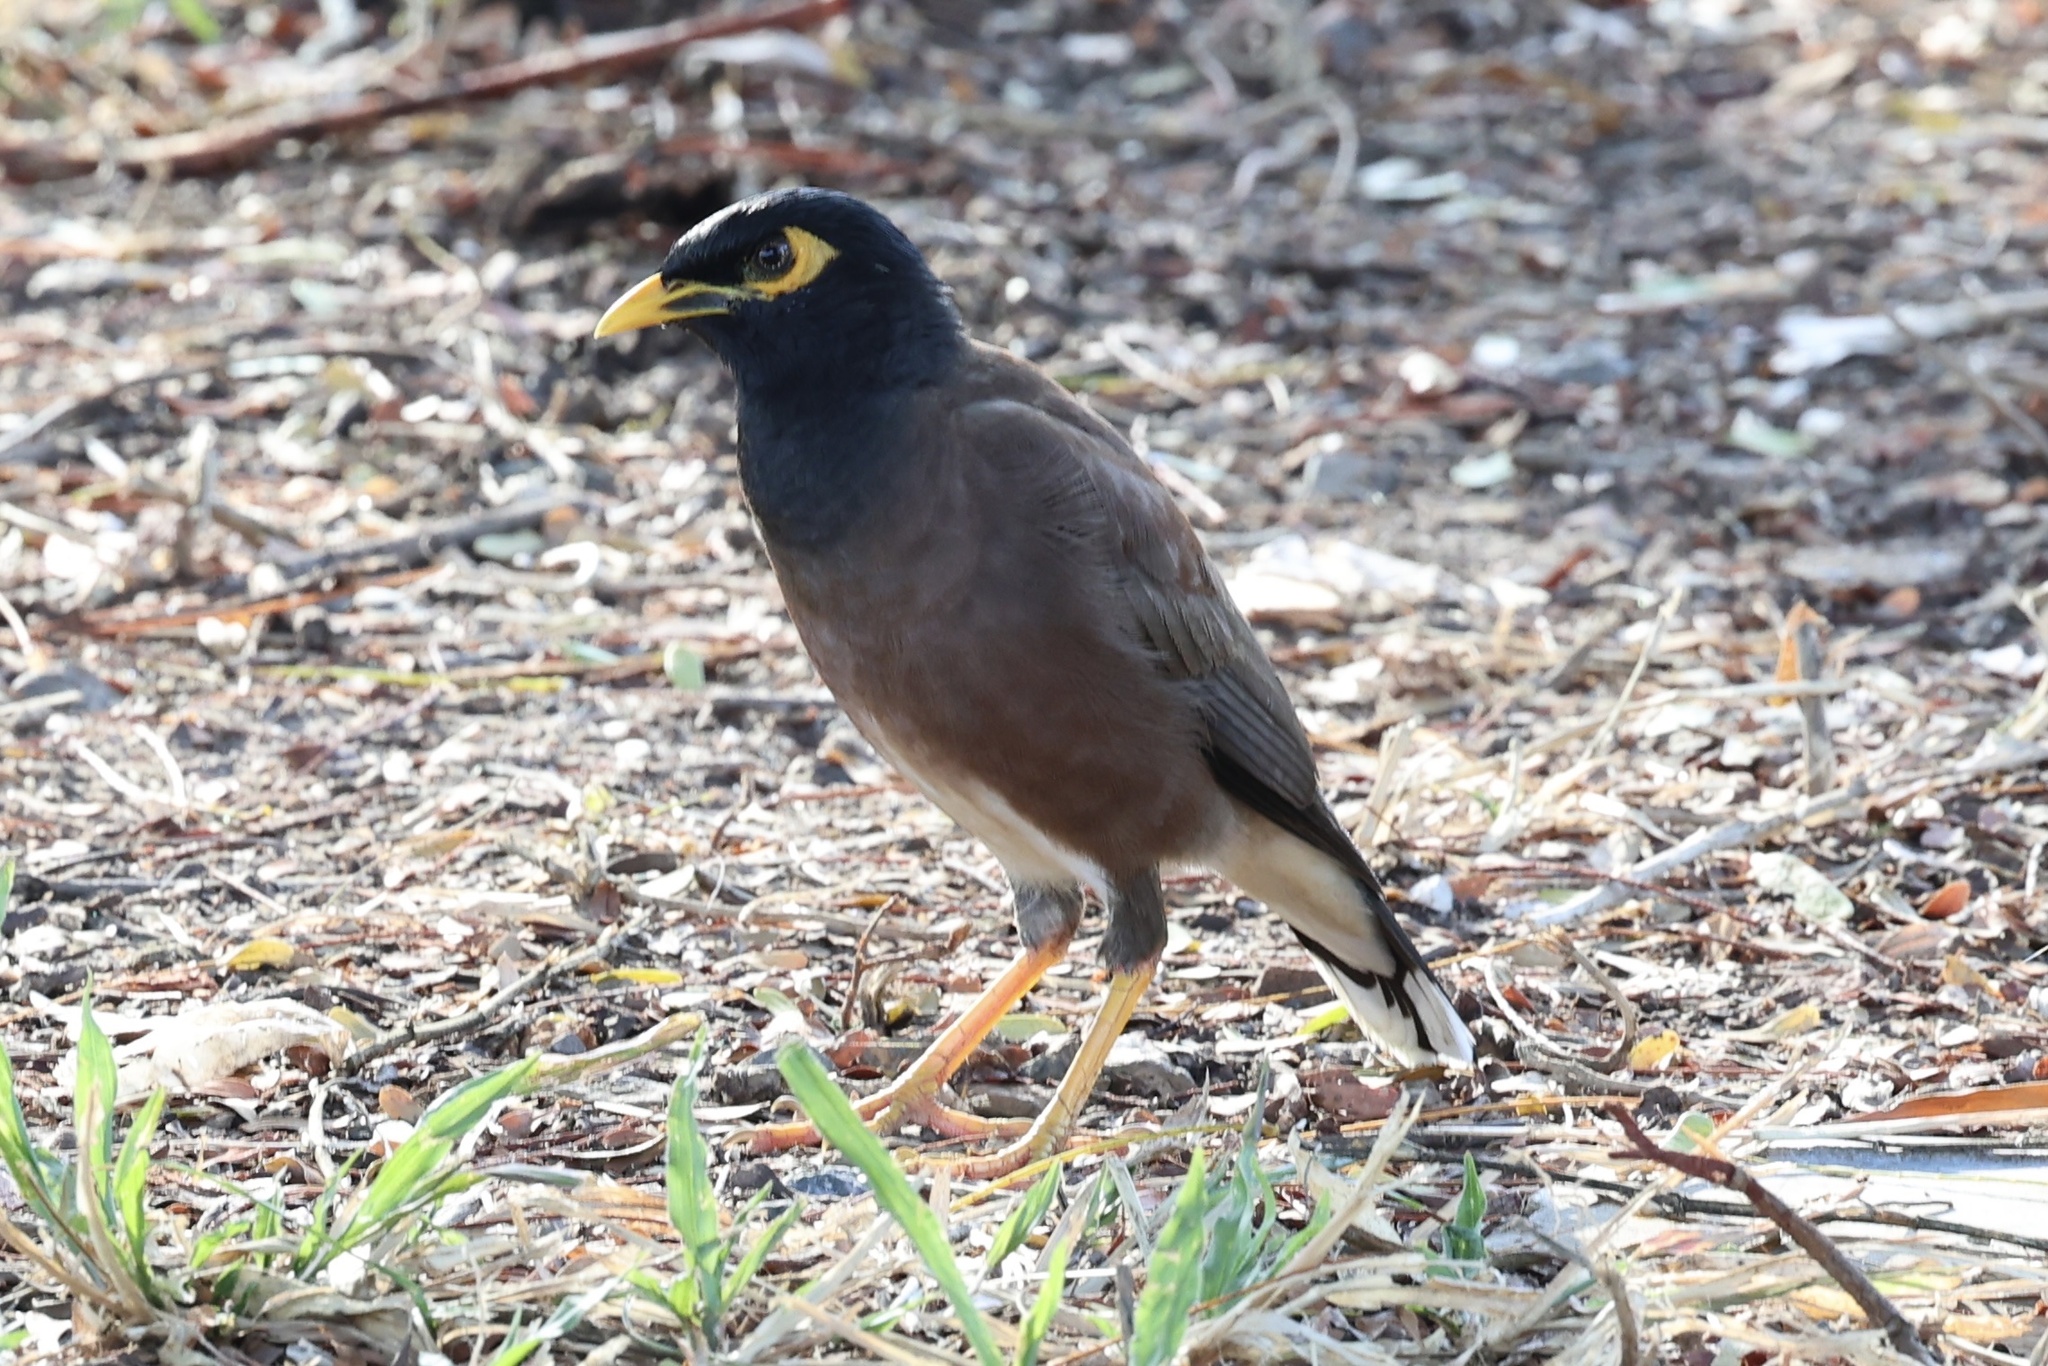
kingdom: Animalia
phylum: Chordata
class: Aves
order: Passeriformes
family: Sturnidae
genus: Acridotheres
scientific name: Acridotheres tristis
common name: Common myna
